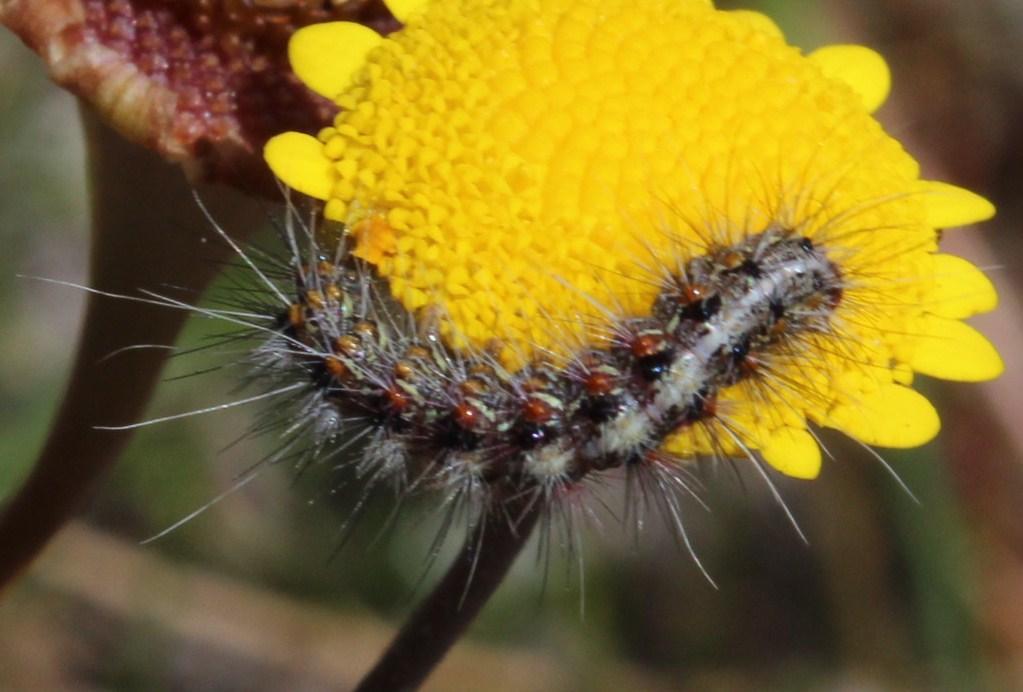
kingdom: Animalia
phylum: Arthropoda
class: Insecta
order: Lepidoptera
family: Erebidae
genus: Paralacydes
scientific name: Paralacydes vocula
